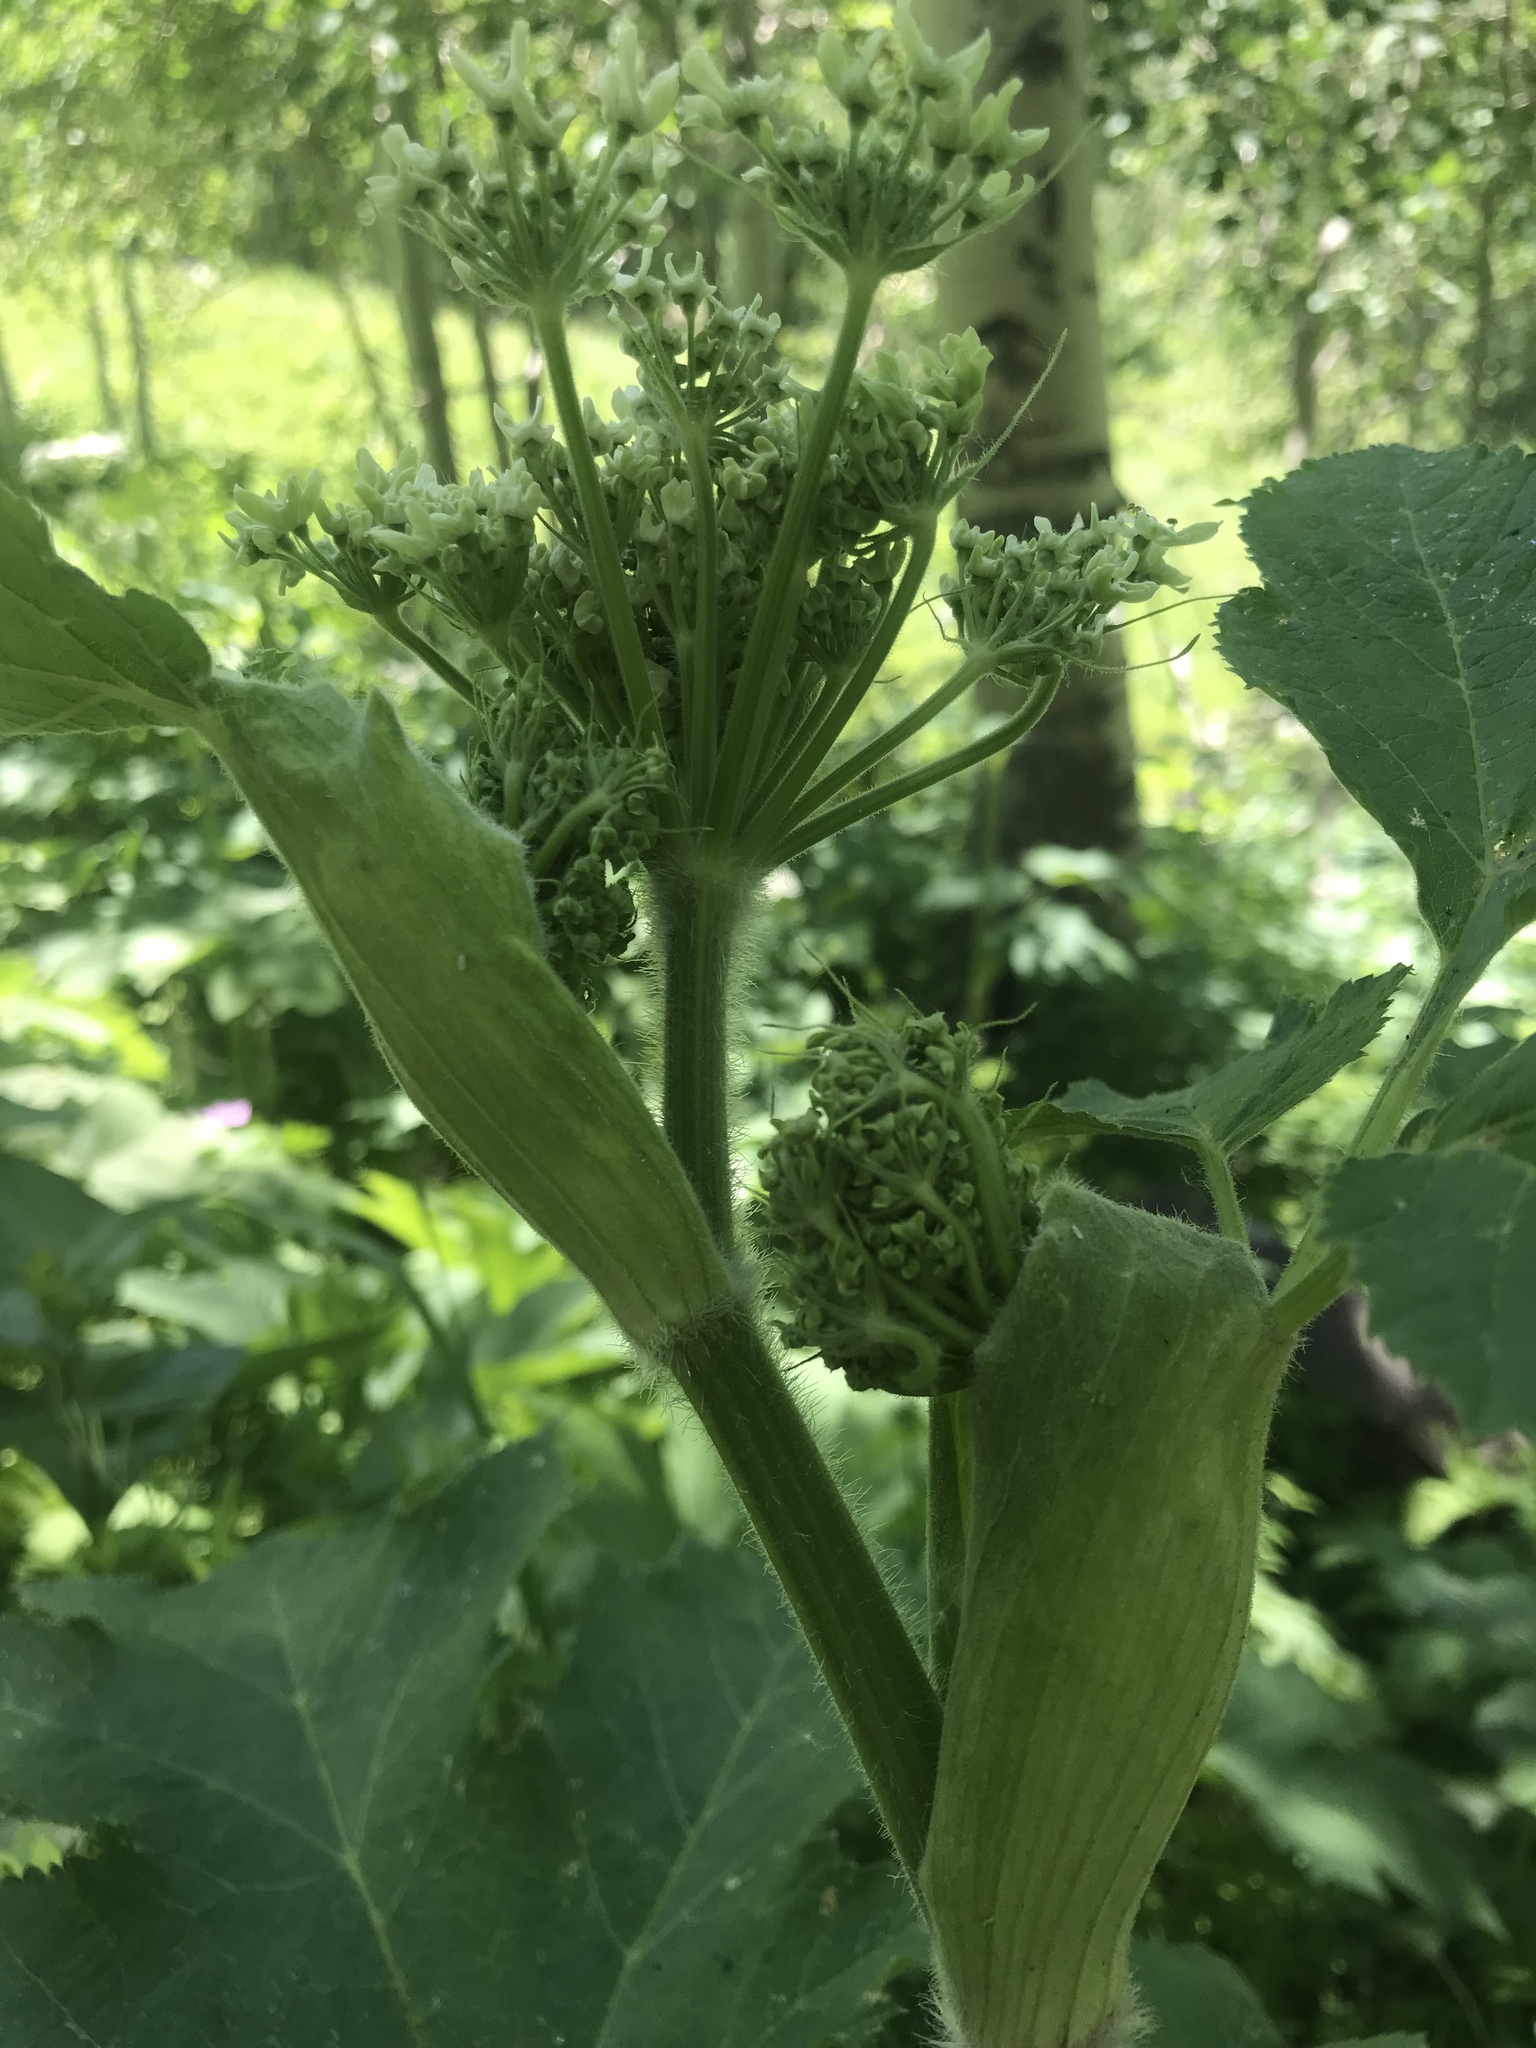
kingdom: Plantae
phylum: Tracheophyta
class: Magnoliopsida
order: Apiales
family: Apiaceae
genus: Heracleum
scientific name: Heracleum maximum
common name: American cow parsnip
